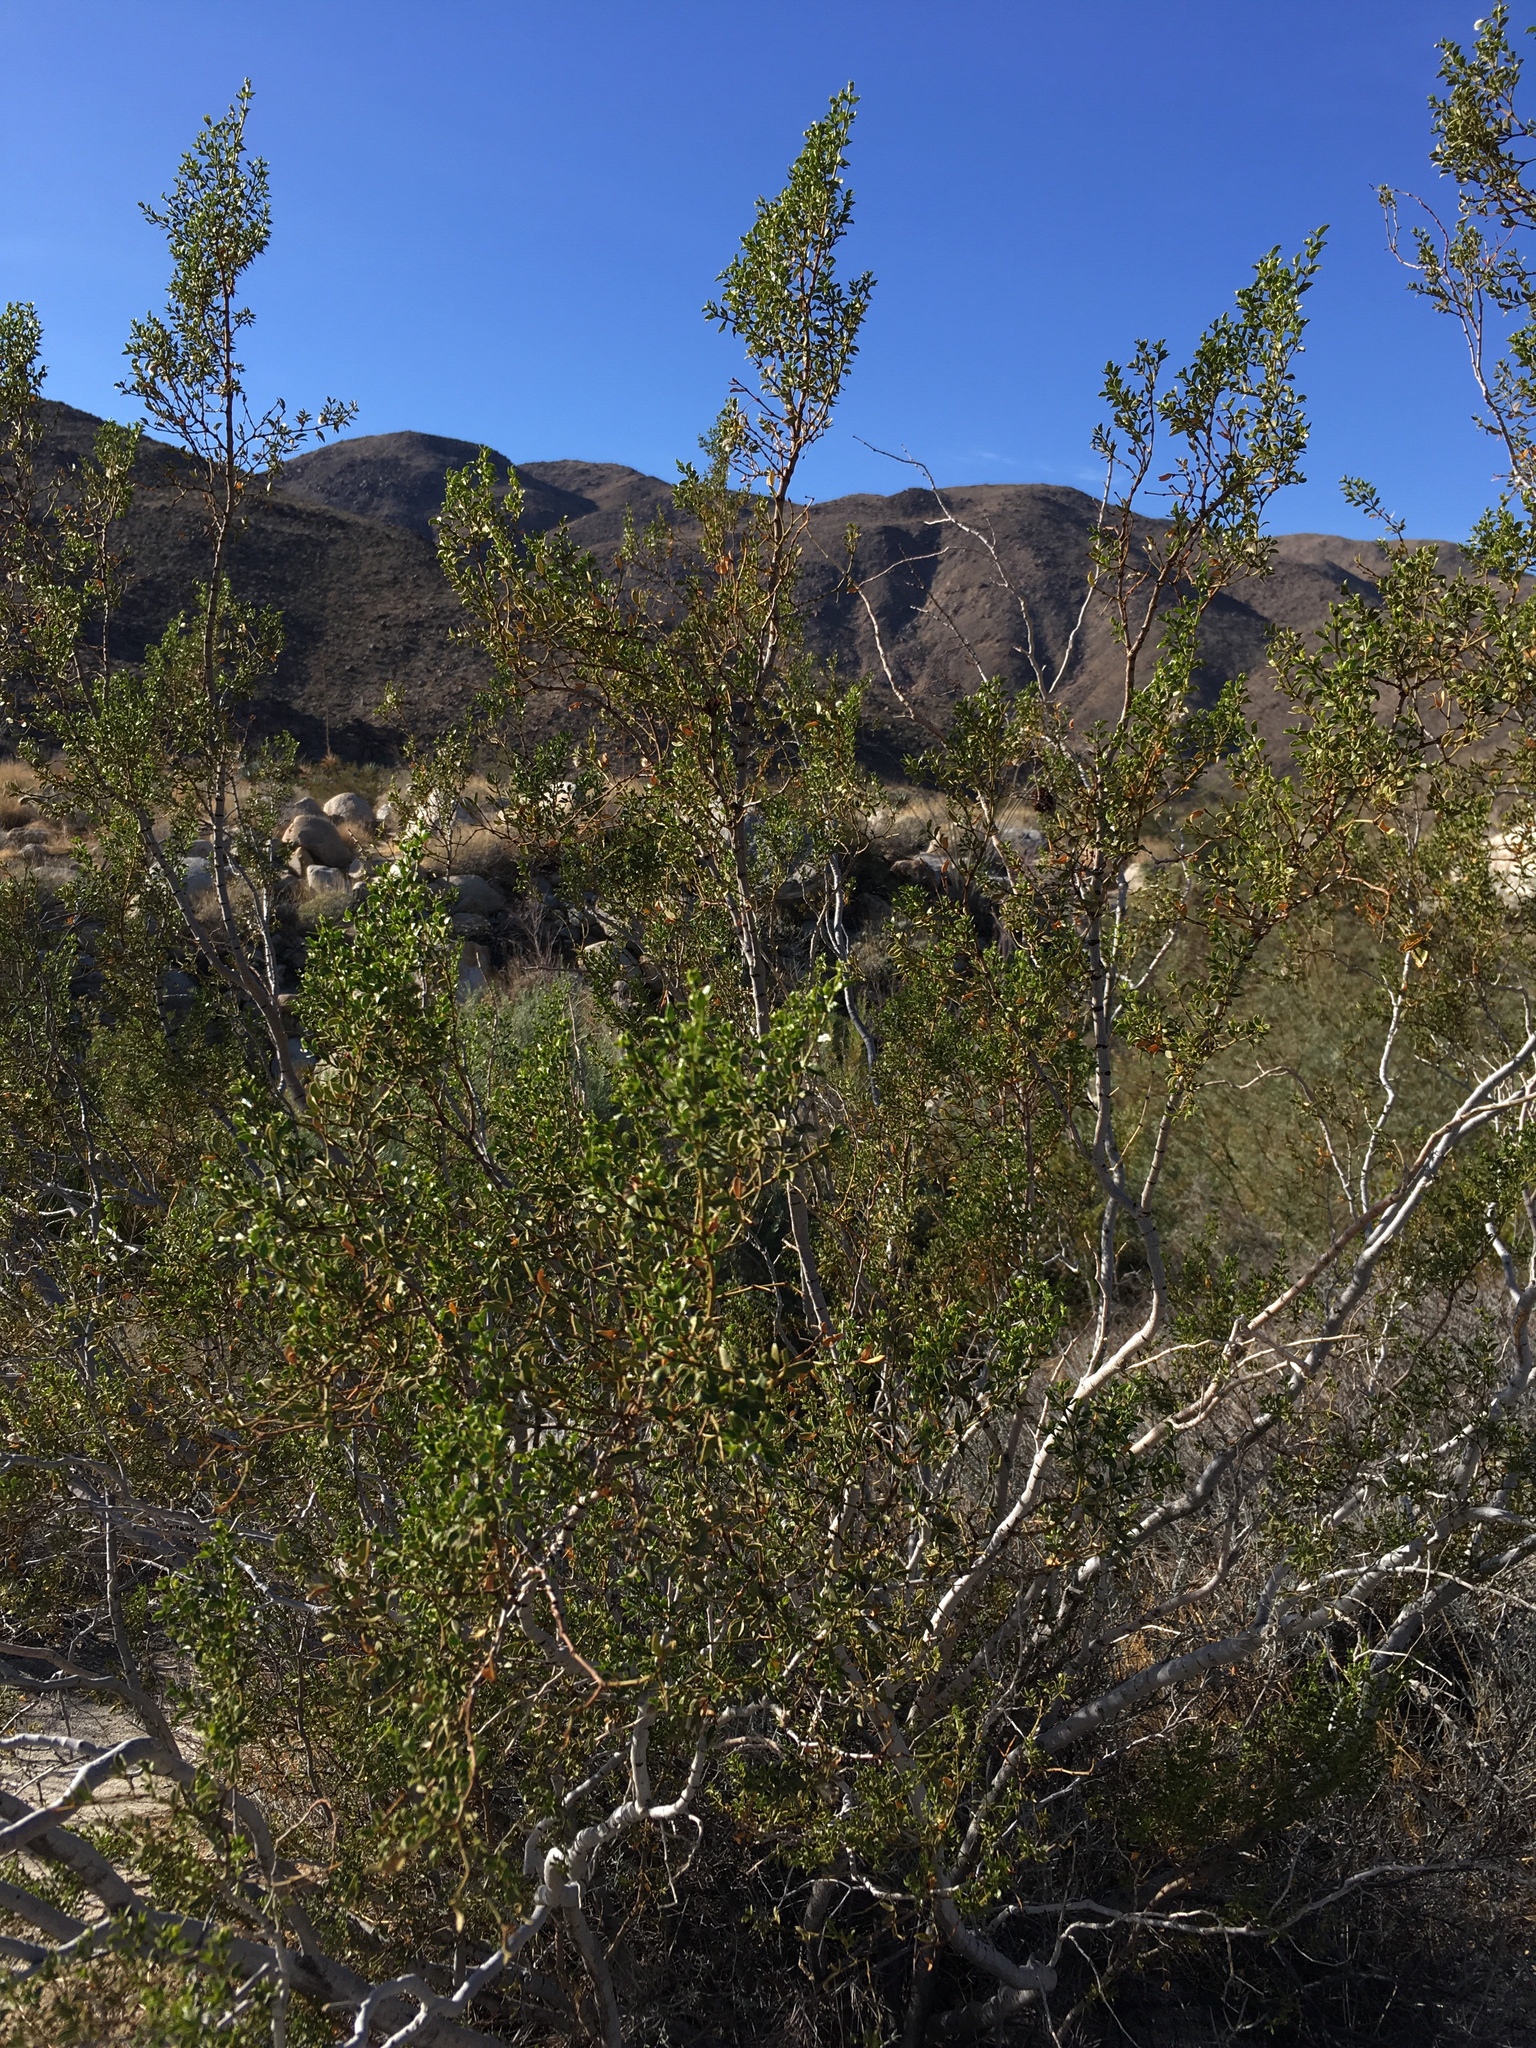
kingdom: Plantae
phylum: Tracheophyta
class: Magnoliopsida
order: Zygophyllales
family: Zygophyllaceae
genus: Larrea
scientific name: Larrea tridentata
